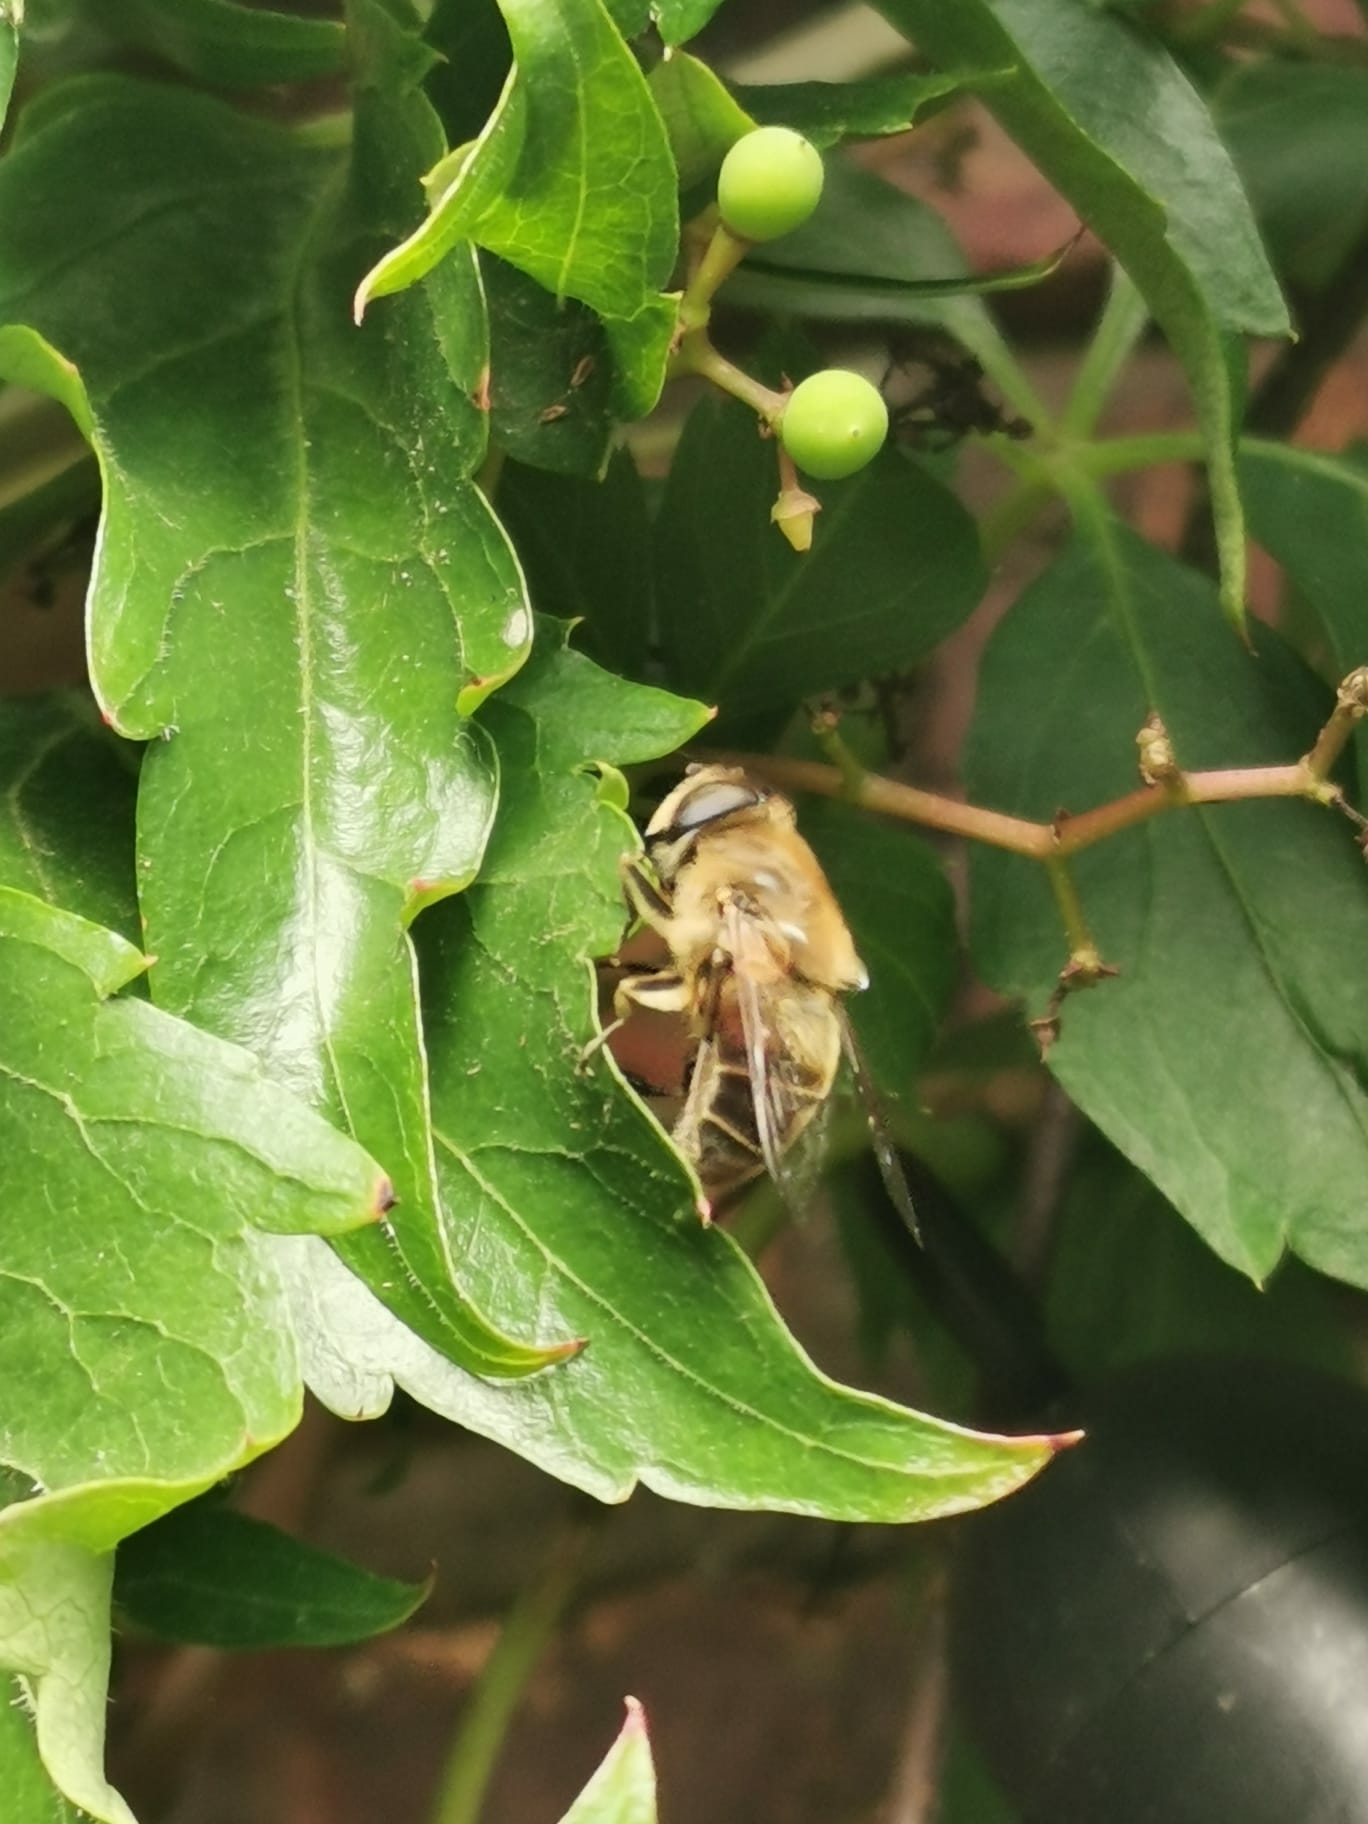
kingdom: Animalia
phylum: Arthropoda
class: Insecta
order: Diptera
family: Syrphidae
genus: Eristalis
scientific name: Eristalis tenax
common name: Drone fly
